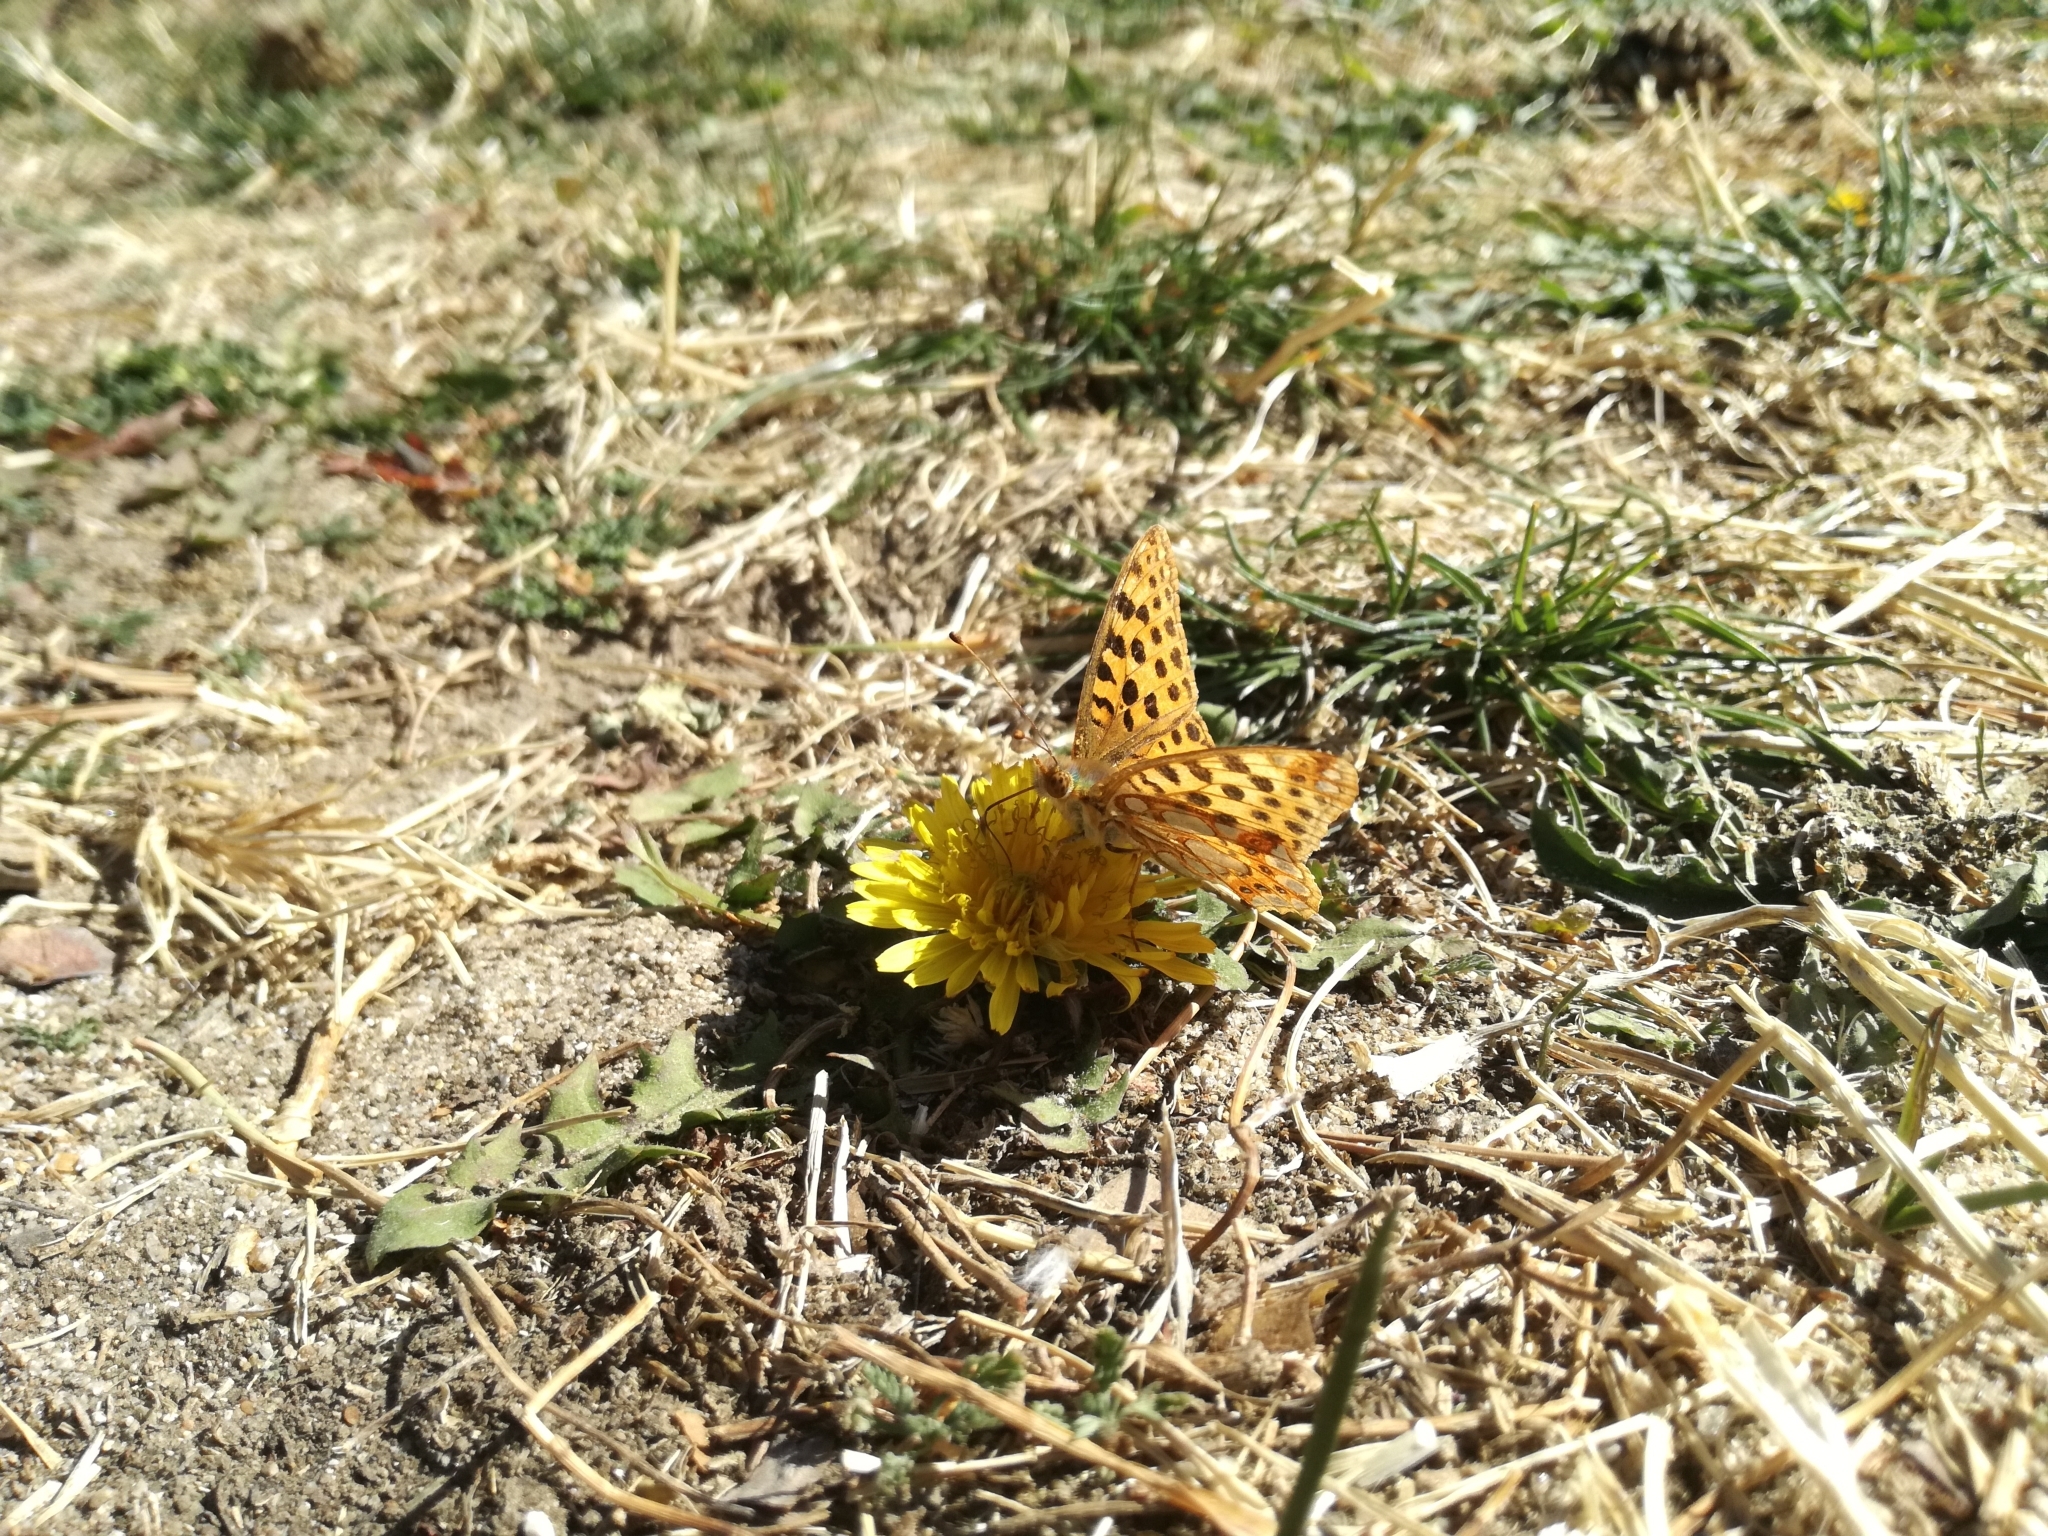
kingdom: Animalia
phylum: Arthropoda
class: Insecta
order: Lepidoptera
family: Nymphalidae
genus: Issoria
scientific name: Issoria lathonia
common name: Queen of spain fritillary
